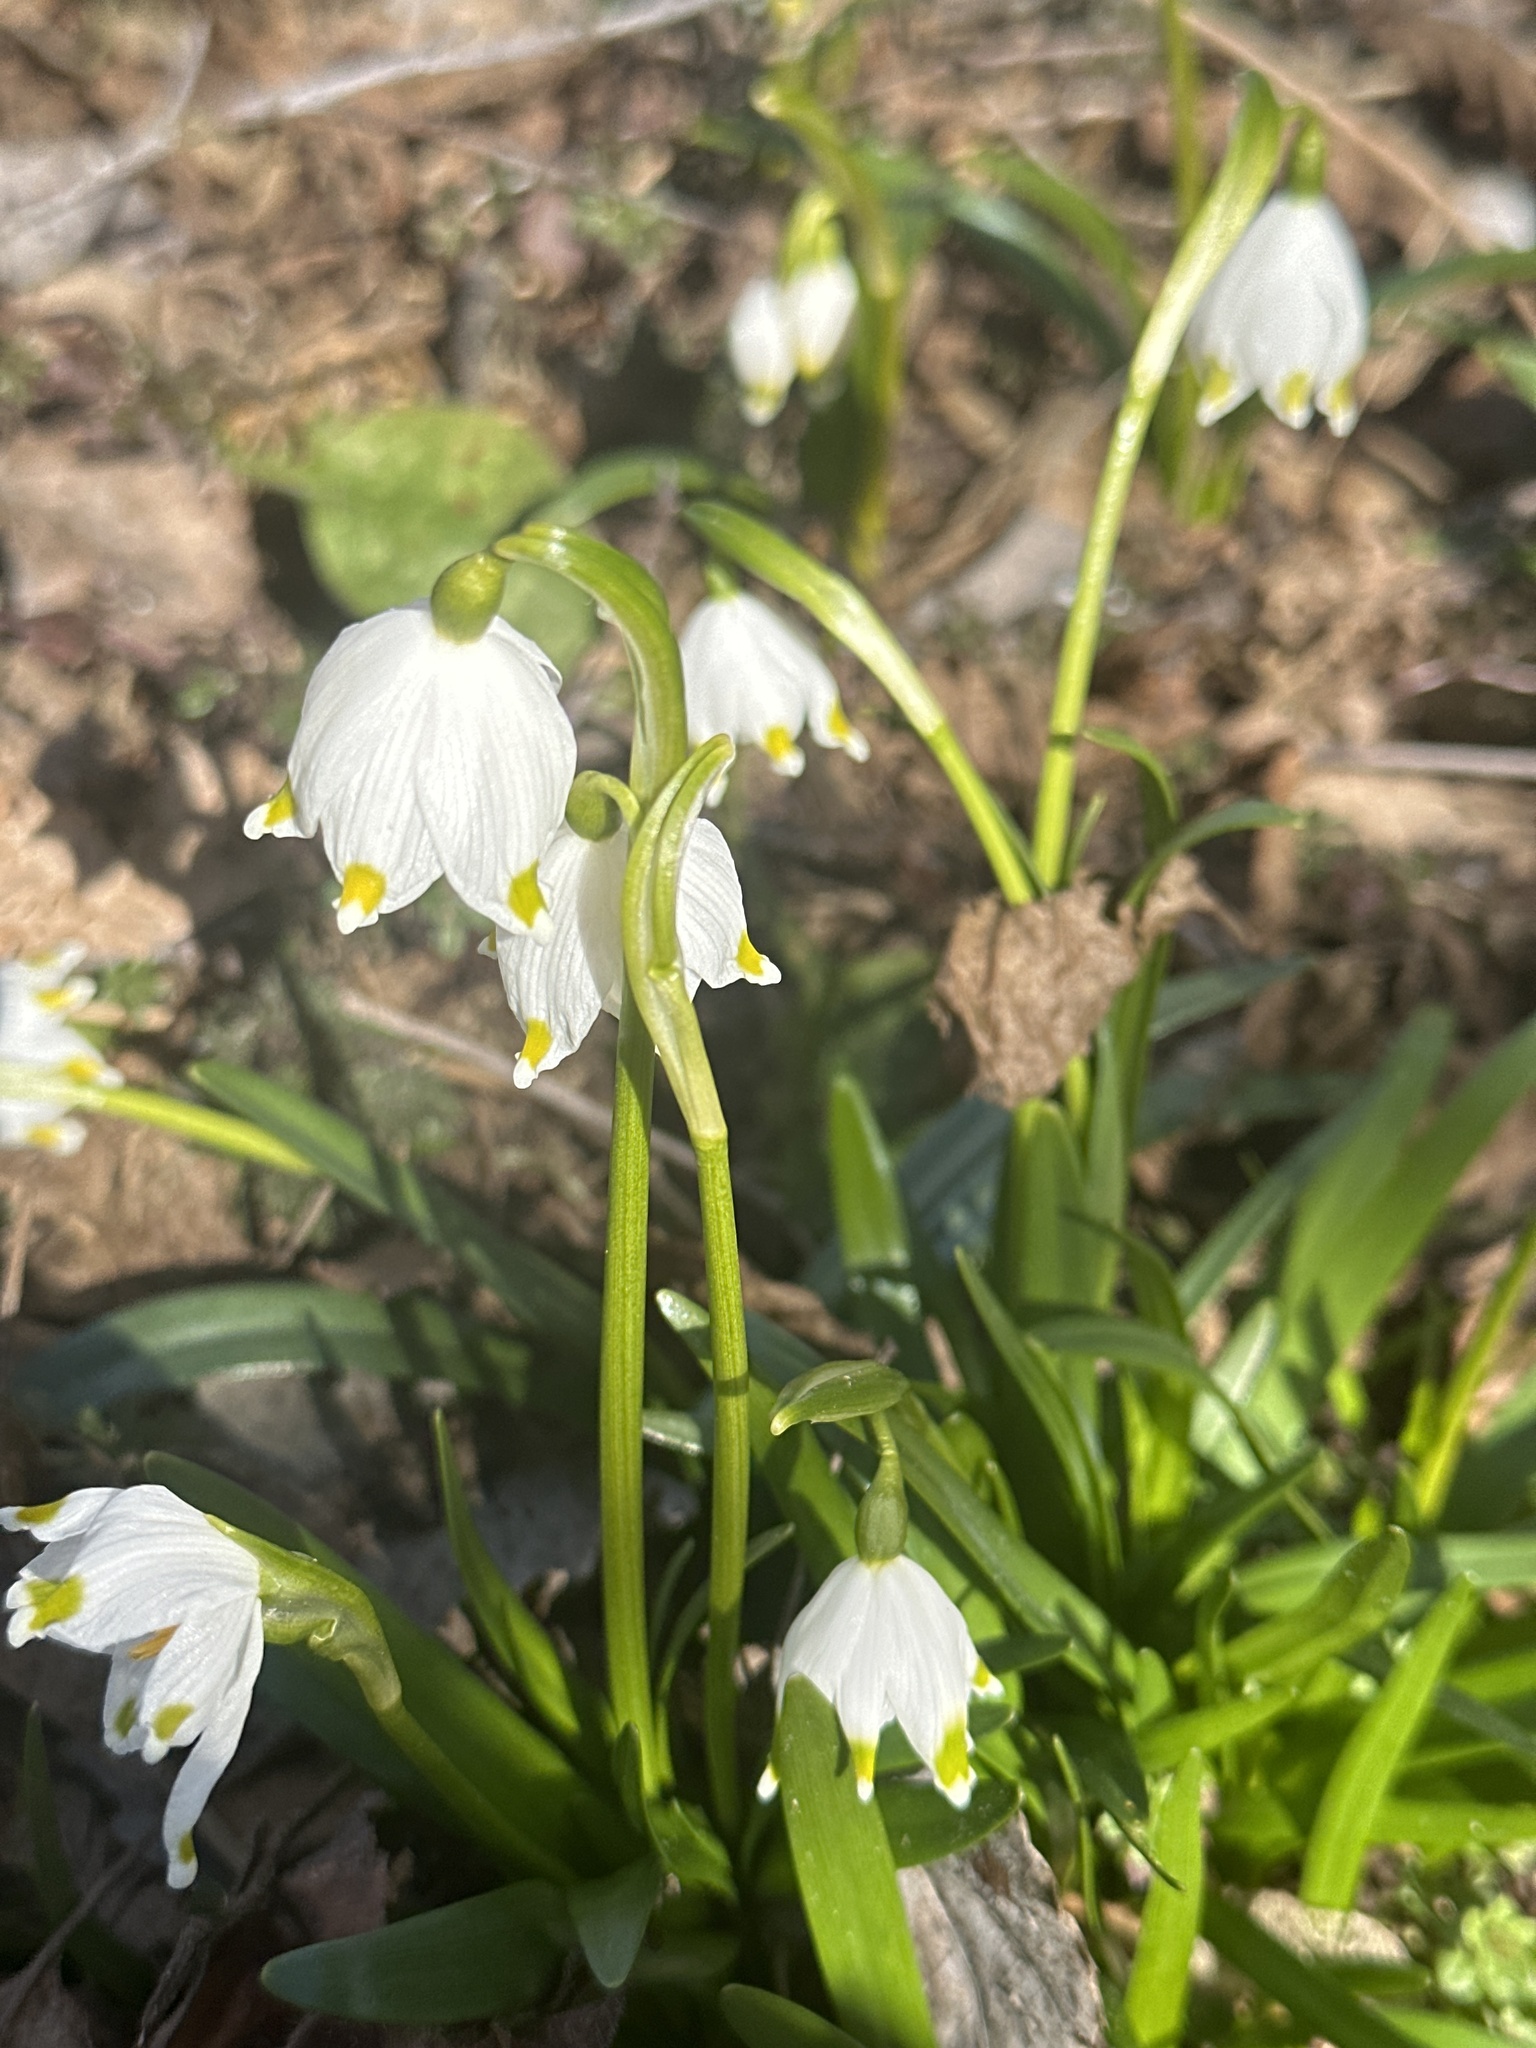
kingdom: Plantae
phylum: Tracheophyta
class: Liliopsida
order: Asparagales
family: Amaryllidaceae
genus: Leucojum
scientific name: Leucojum vernum
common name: Spring snowflake
